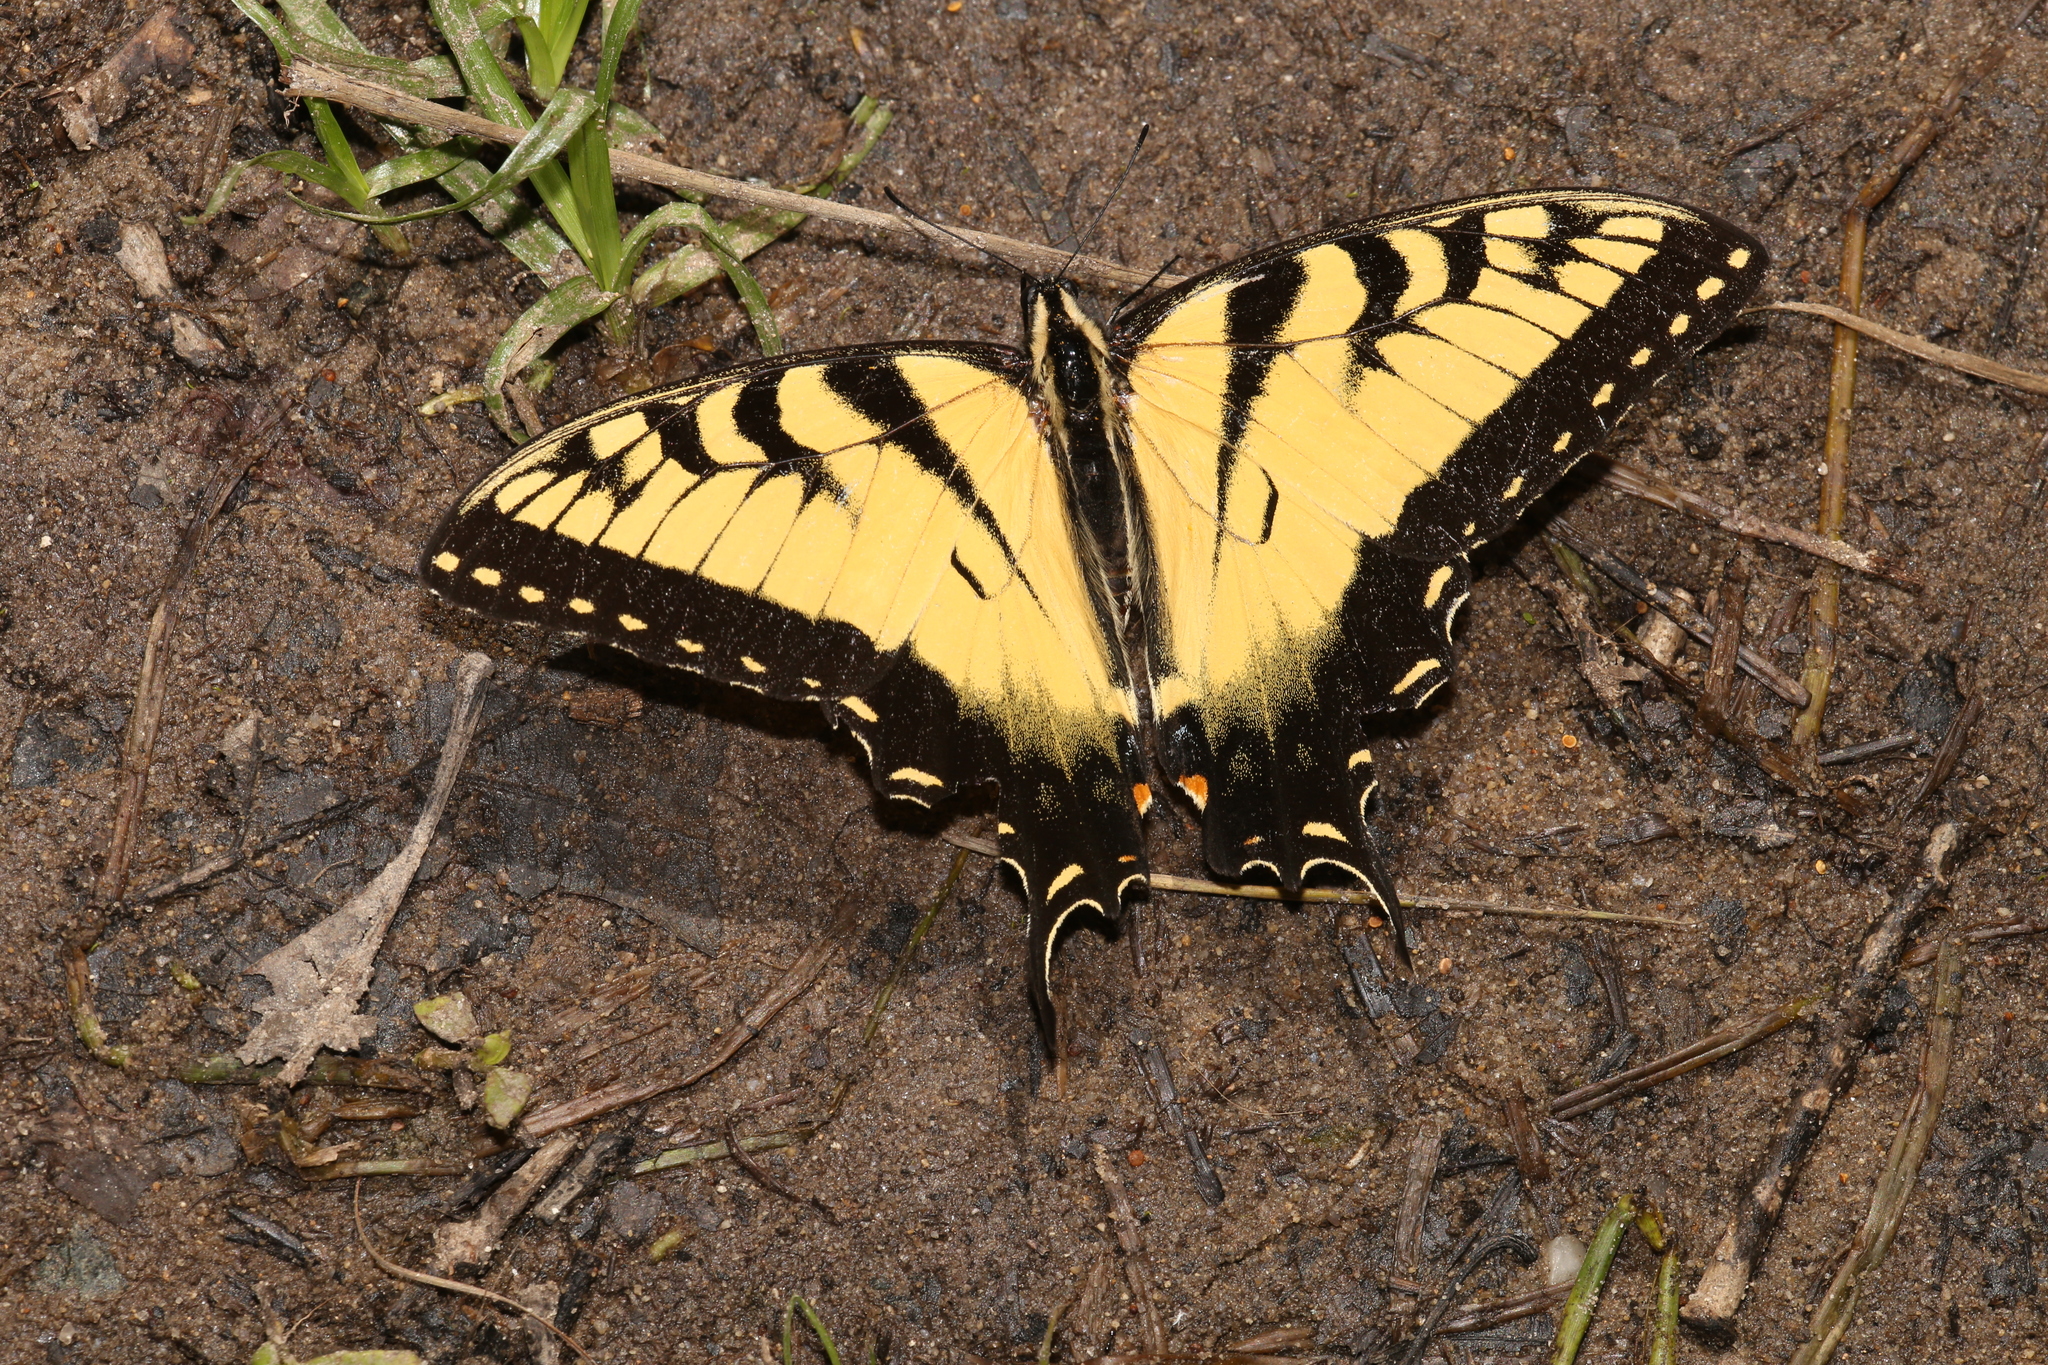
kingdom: Animalia
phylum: Arthropoda
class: Insecta
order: Lepidoptera
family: Papilionidae
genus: Papilio
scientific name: Papilio glaucus
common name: Tiger swallowtail
